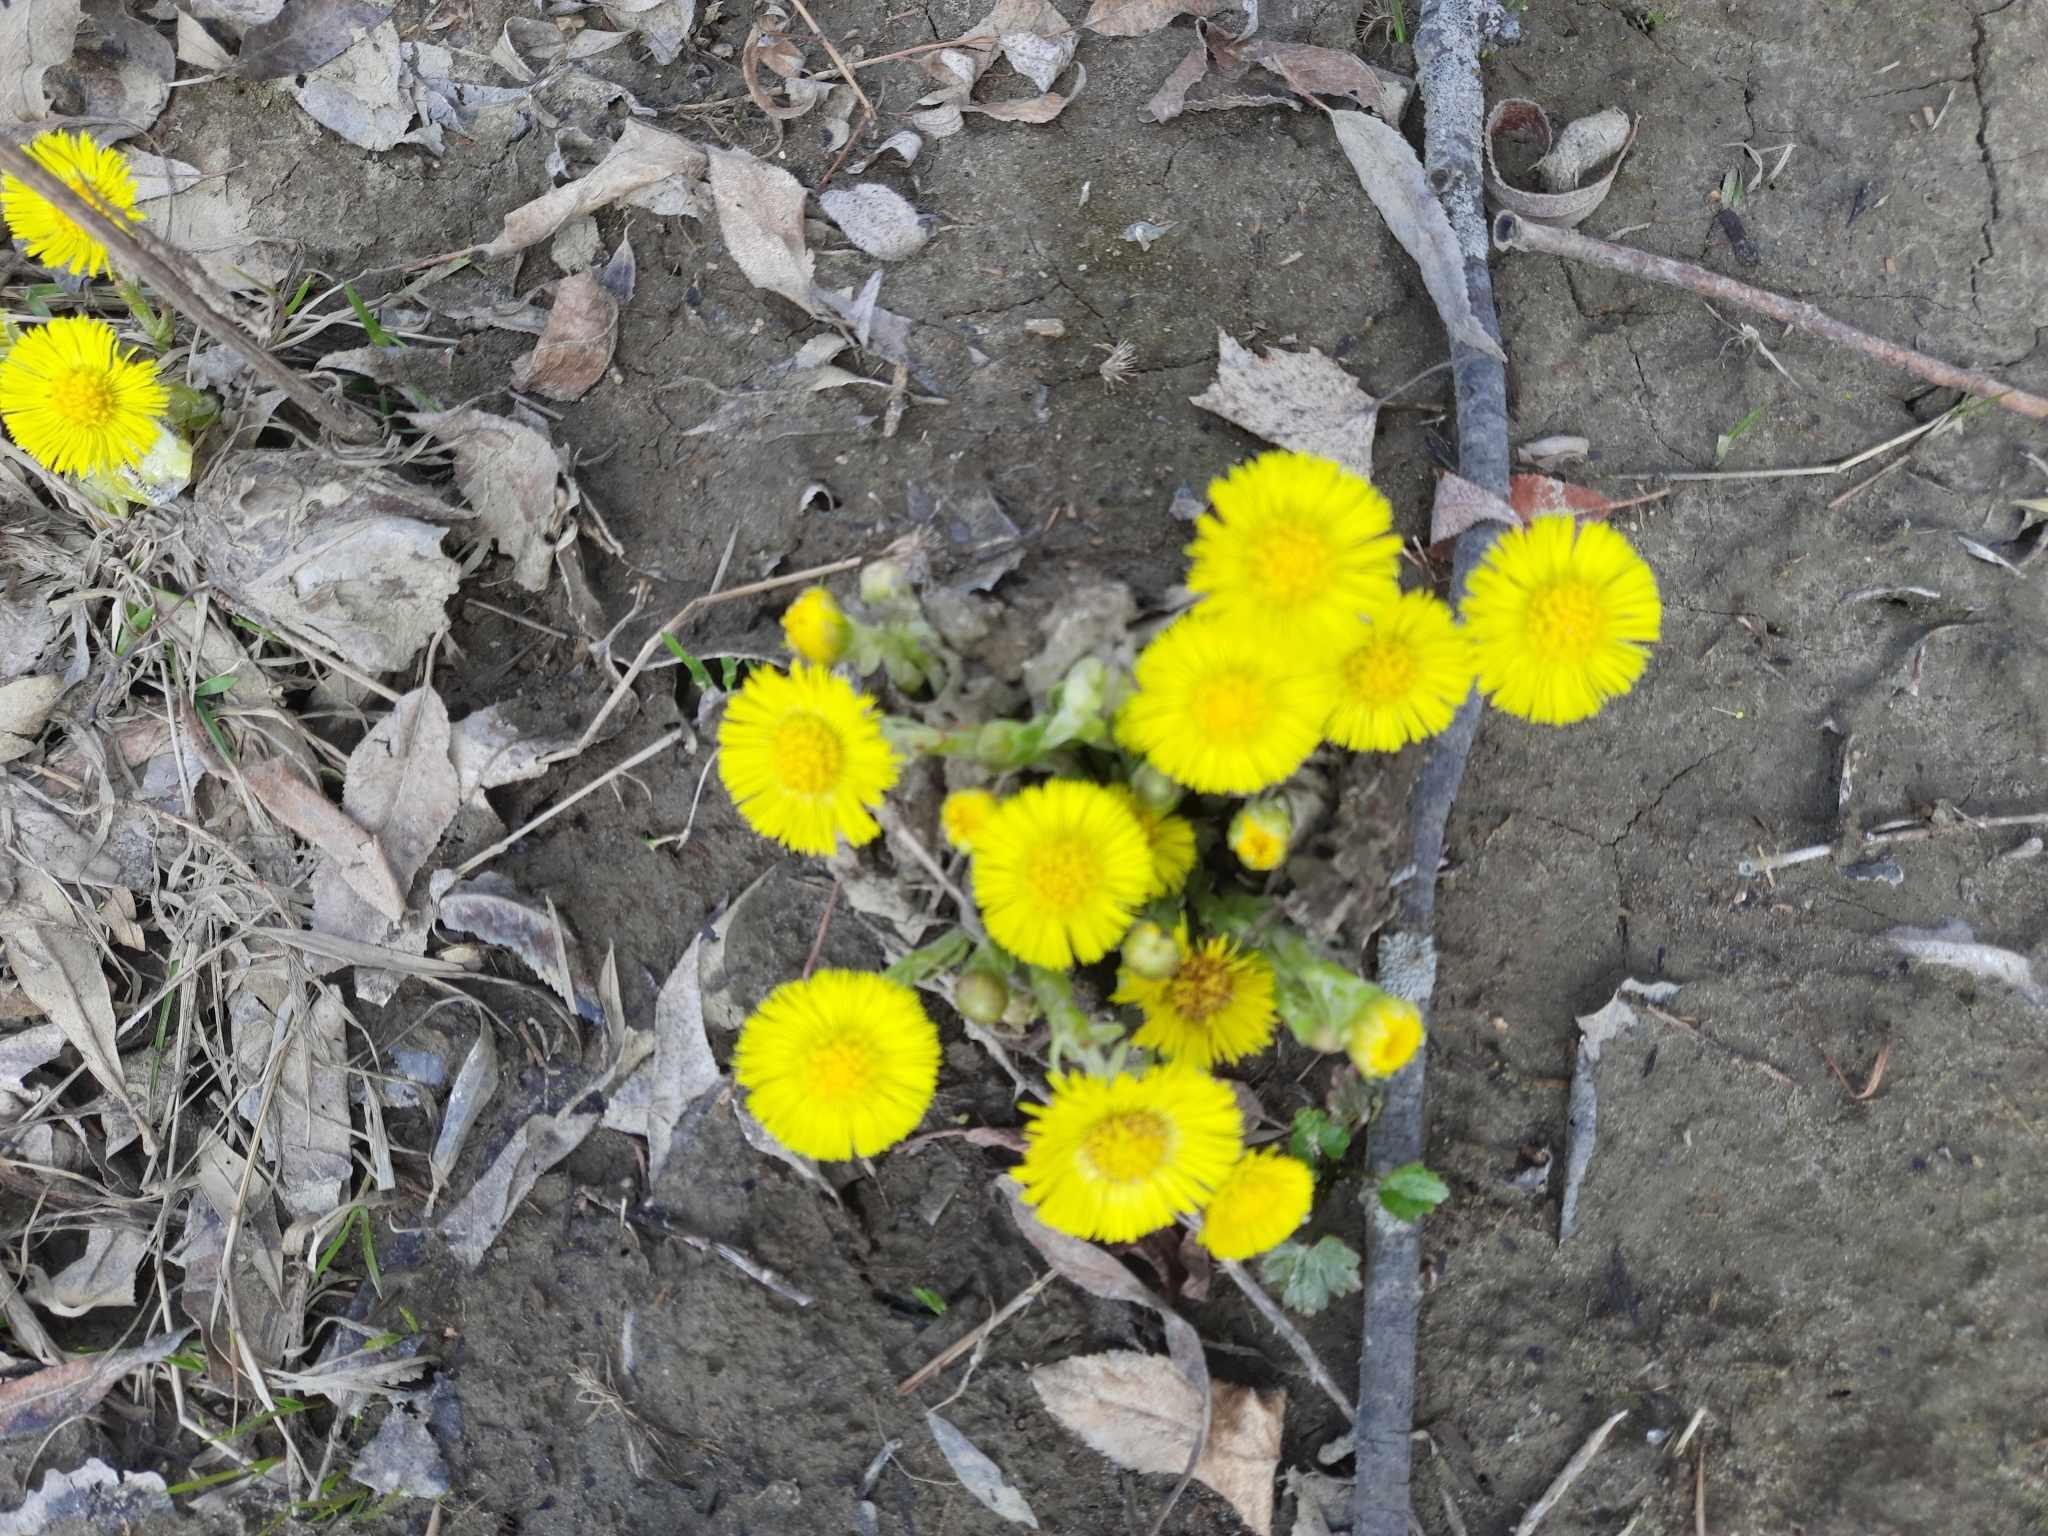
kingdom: Plantae
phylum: Tracheophyta
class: Magnoliopsida
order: Asterales
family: Asteraceae
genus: Tussilago
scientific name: Tussilago farfara
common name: Coltsfoot
